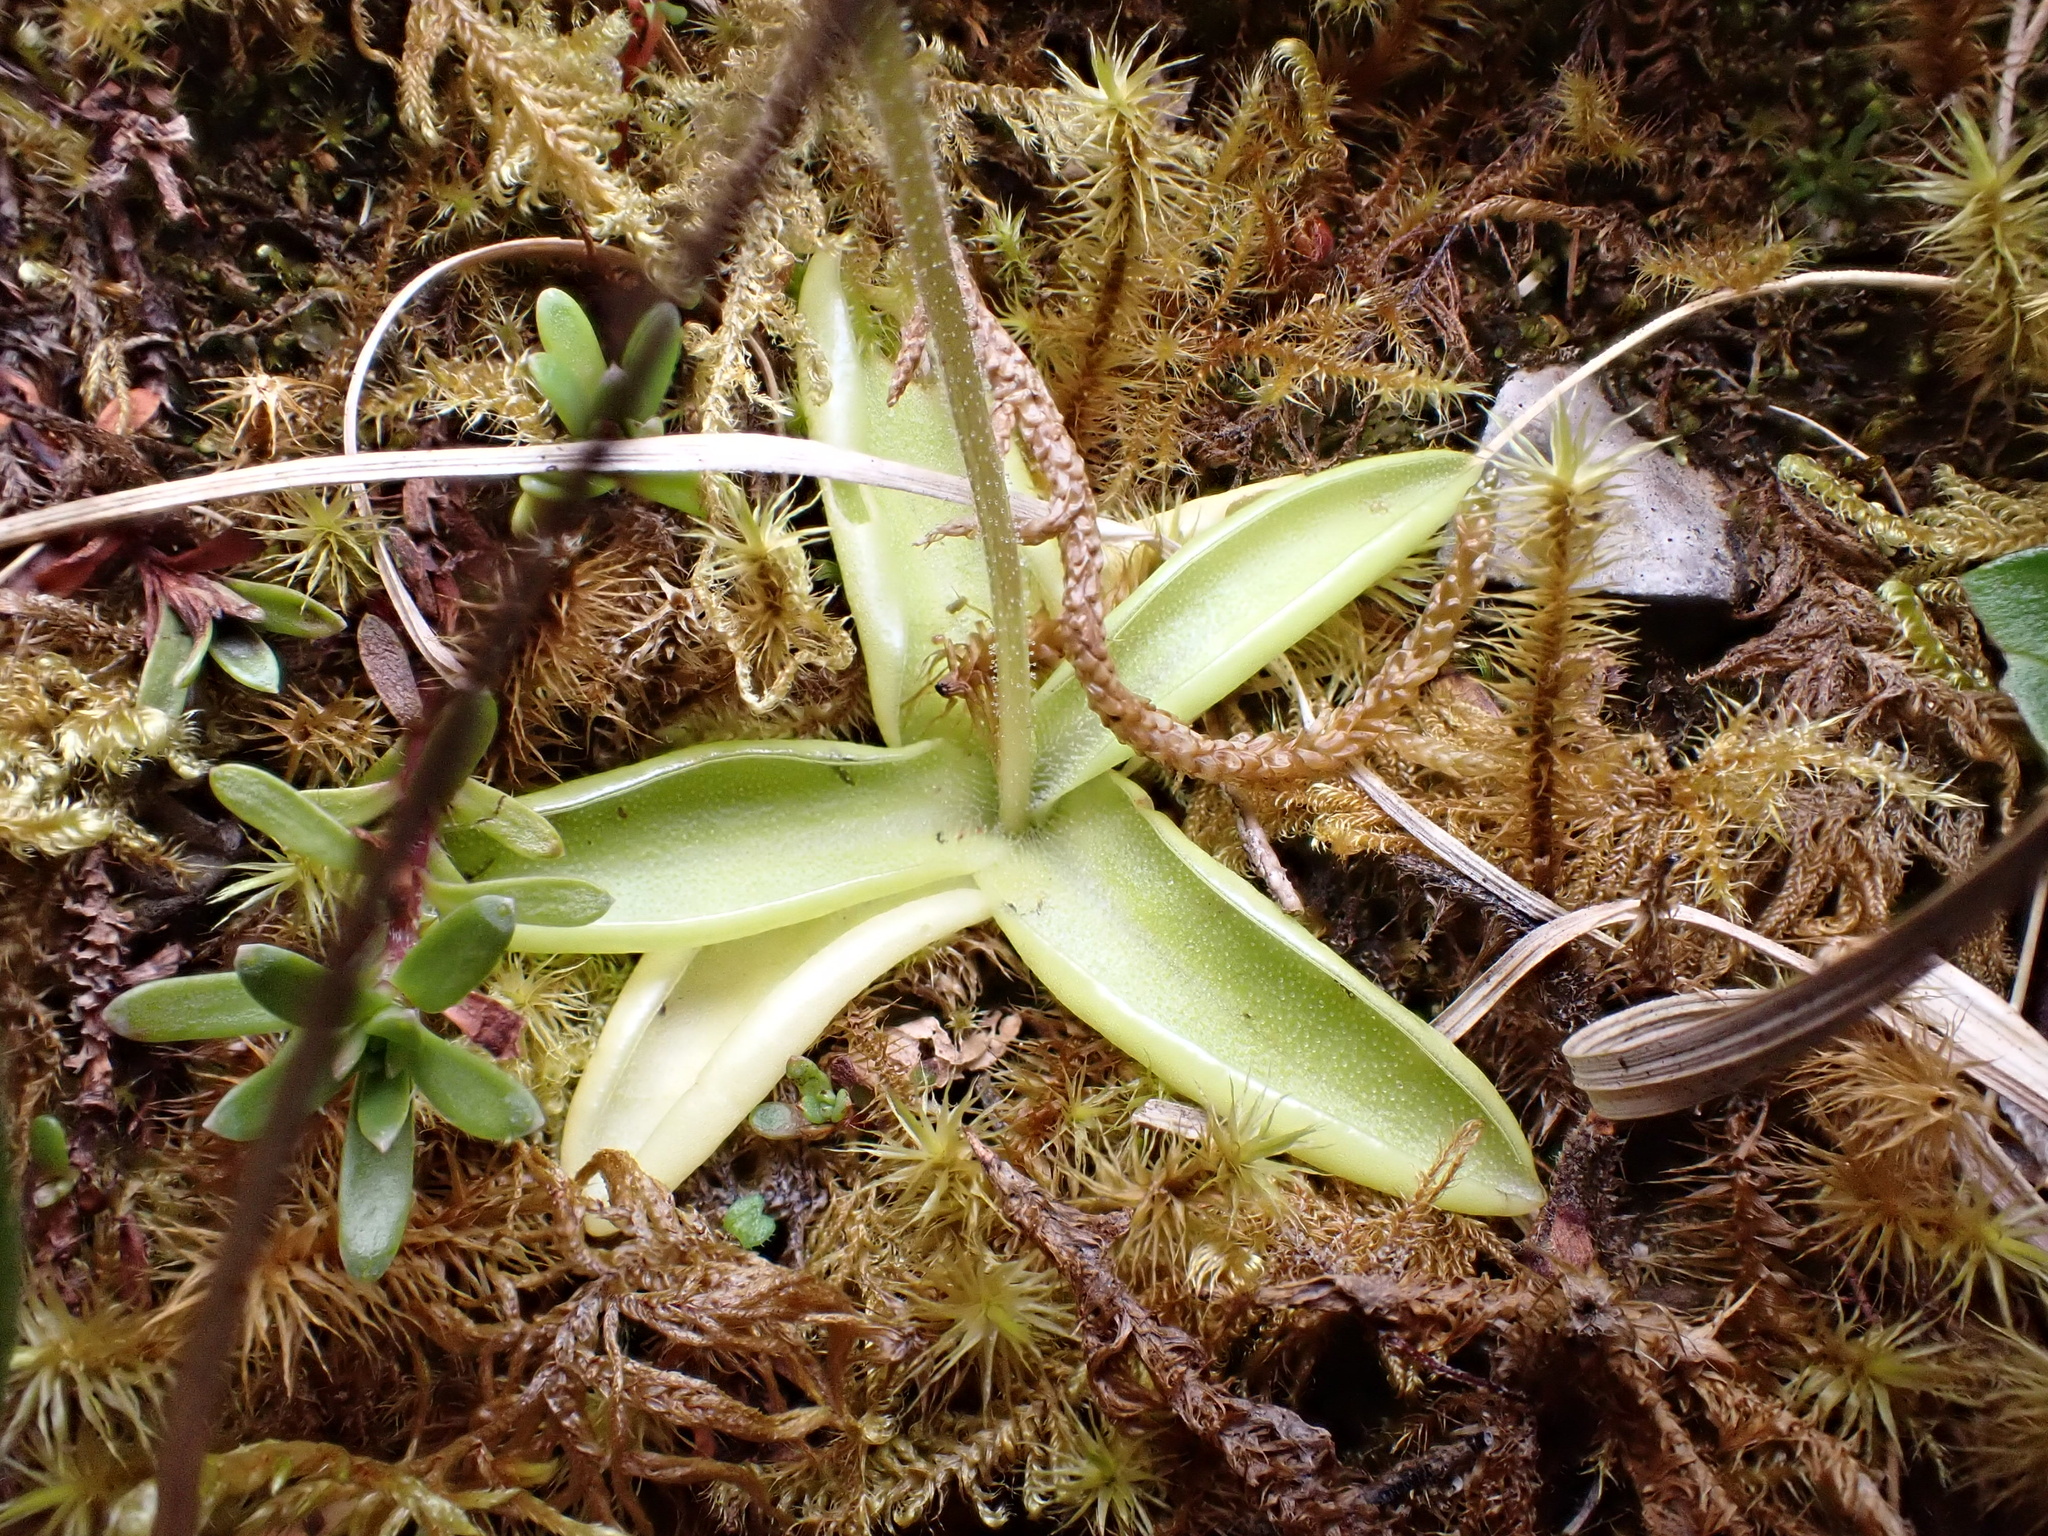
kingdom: Plantae
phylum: Tracheophyta
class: Magnoliopsida
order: Lamiales
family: Lentibulariaceae
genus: Pinguicula
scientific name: Pinguicula vulgaris
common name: Common butterwort
